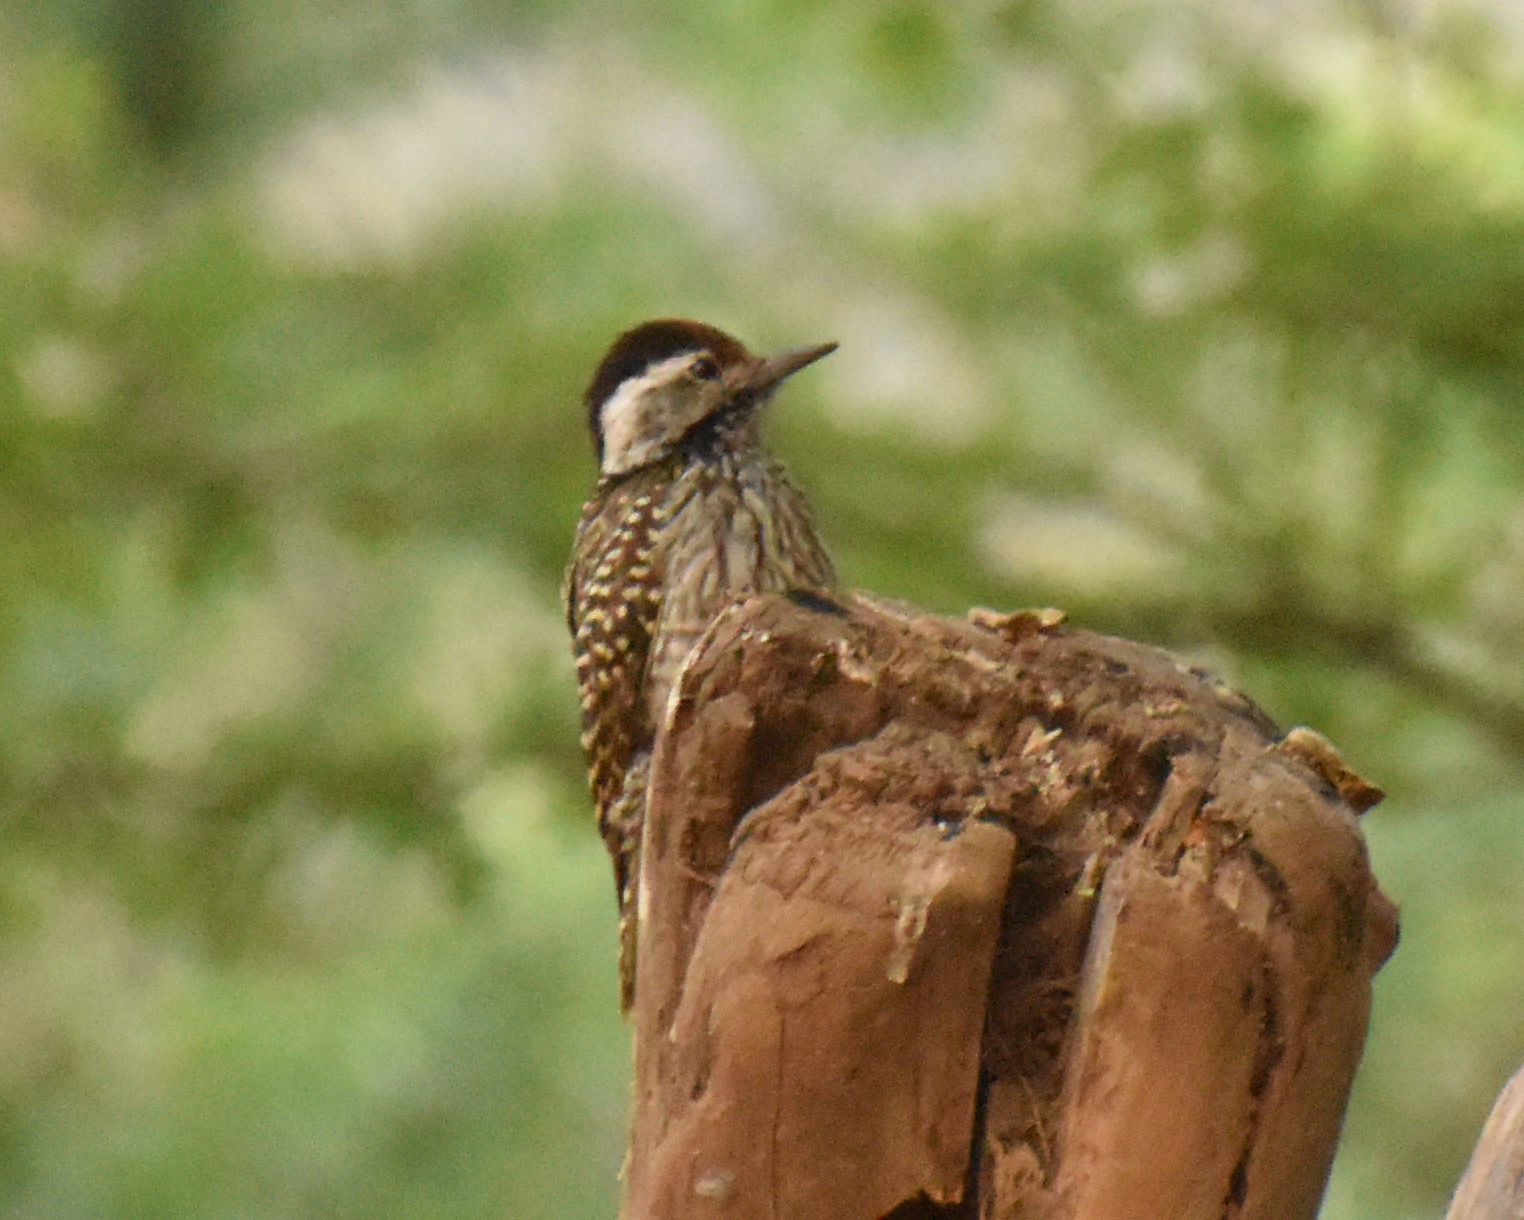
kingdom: Animalia
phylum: Chordata
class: Aves
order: Piciformes
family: Picidae
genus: Dendropicos
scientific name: Dendropicos fuscescens
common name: Cardinal woodpecker
